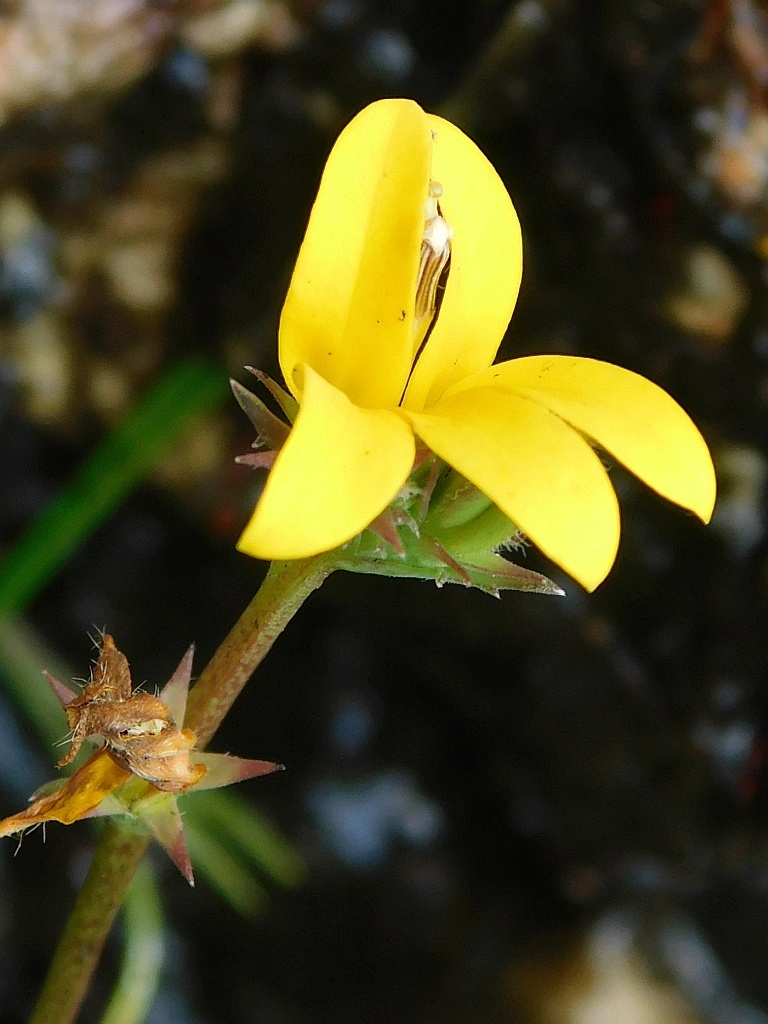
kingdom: Plantae
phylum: Tracheophyta
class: Magnoliopsida
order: Asterales
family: Campanulaceae
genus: Monopsis
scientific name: Monopsis lutea
